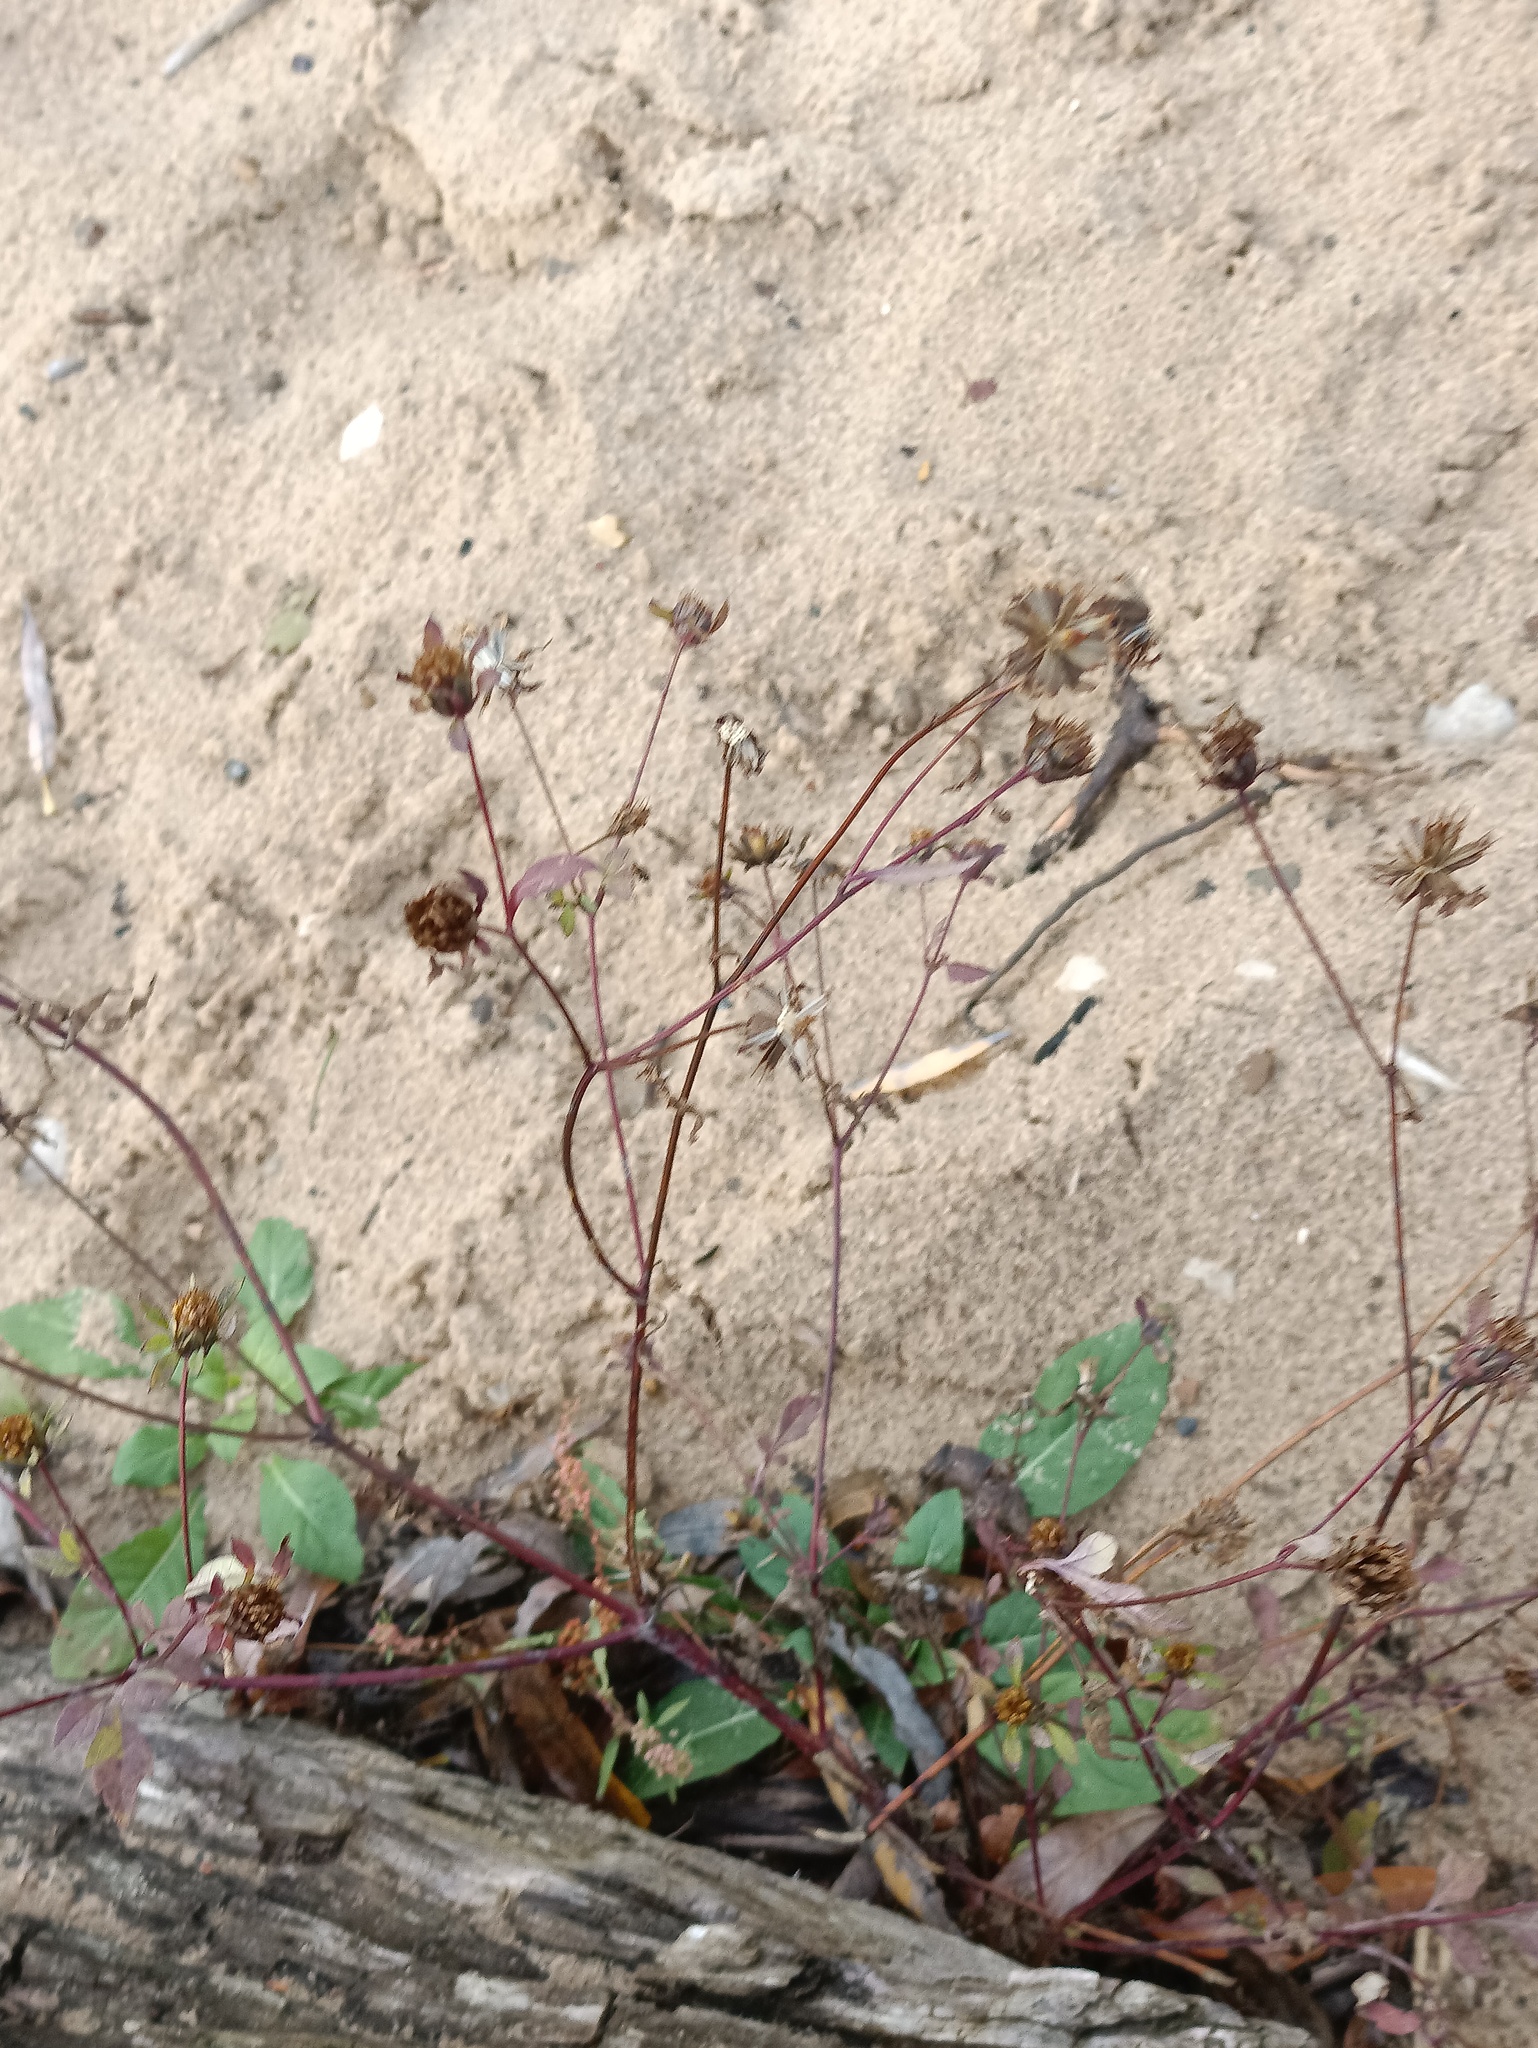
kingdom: Plantae
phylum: Tracheophyta
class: Magnoliopsida
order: Asterales
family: Asteraceae
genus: Bidens
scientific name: Bidens frondosa
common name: Beggarticks
